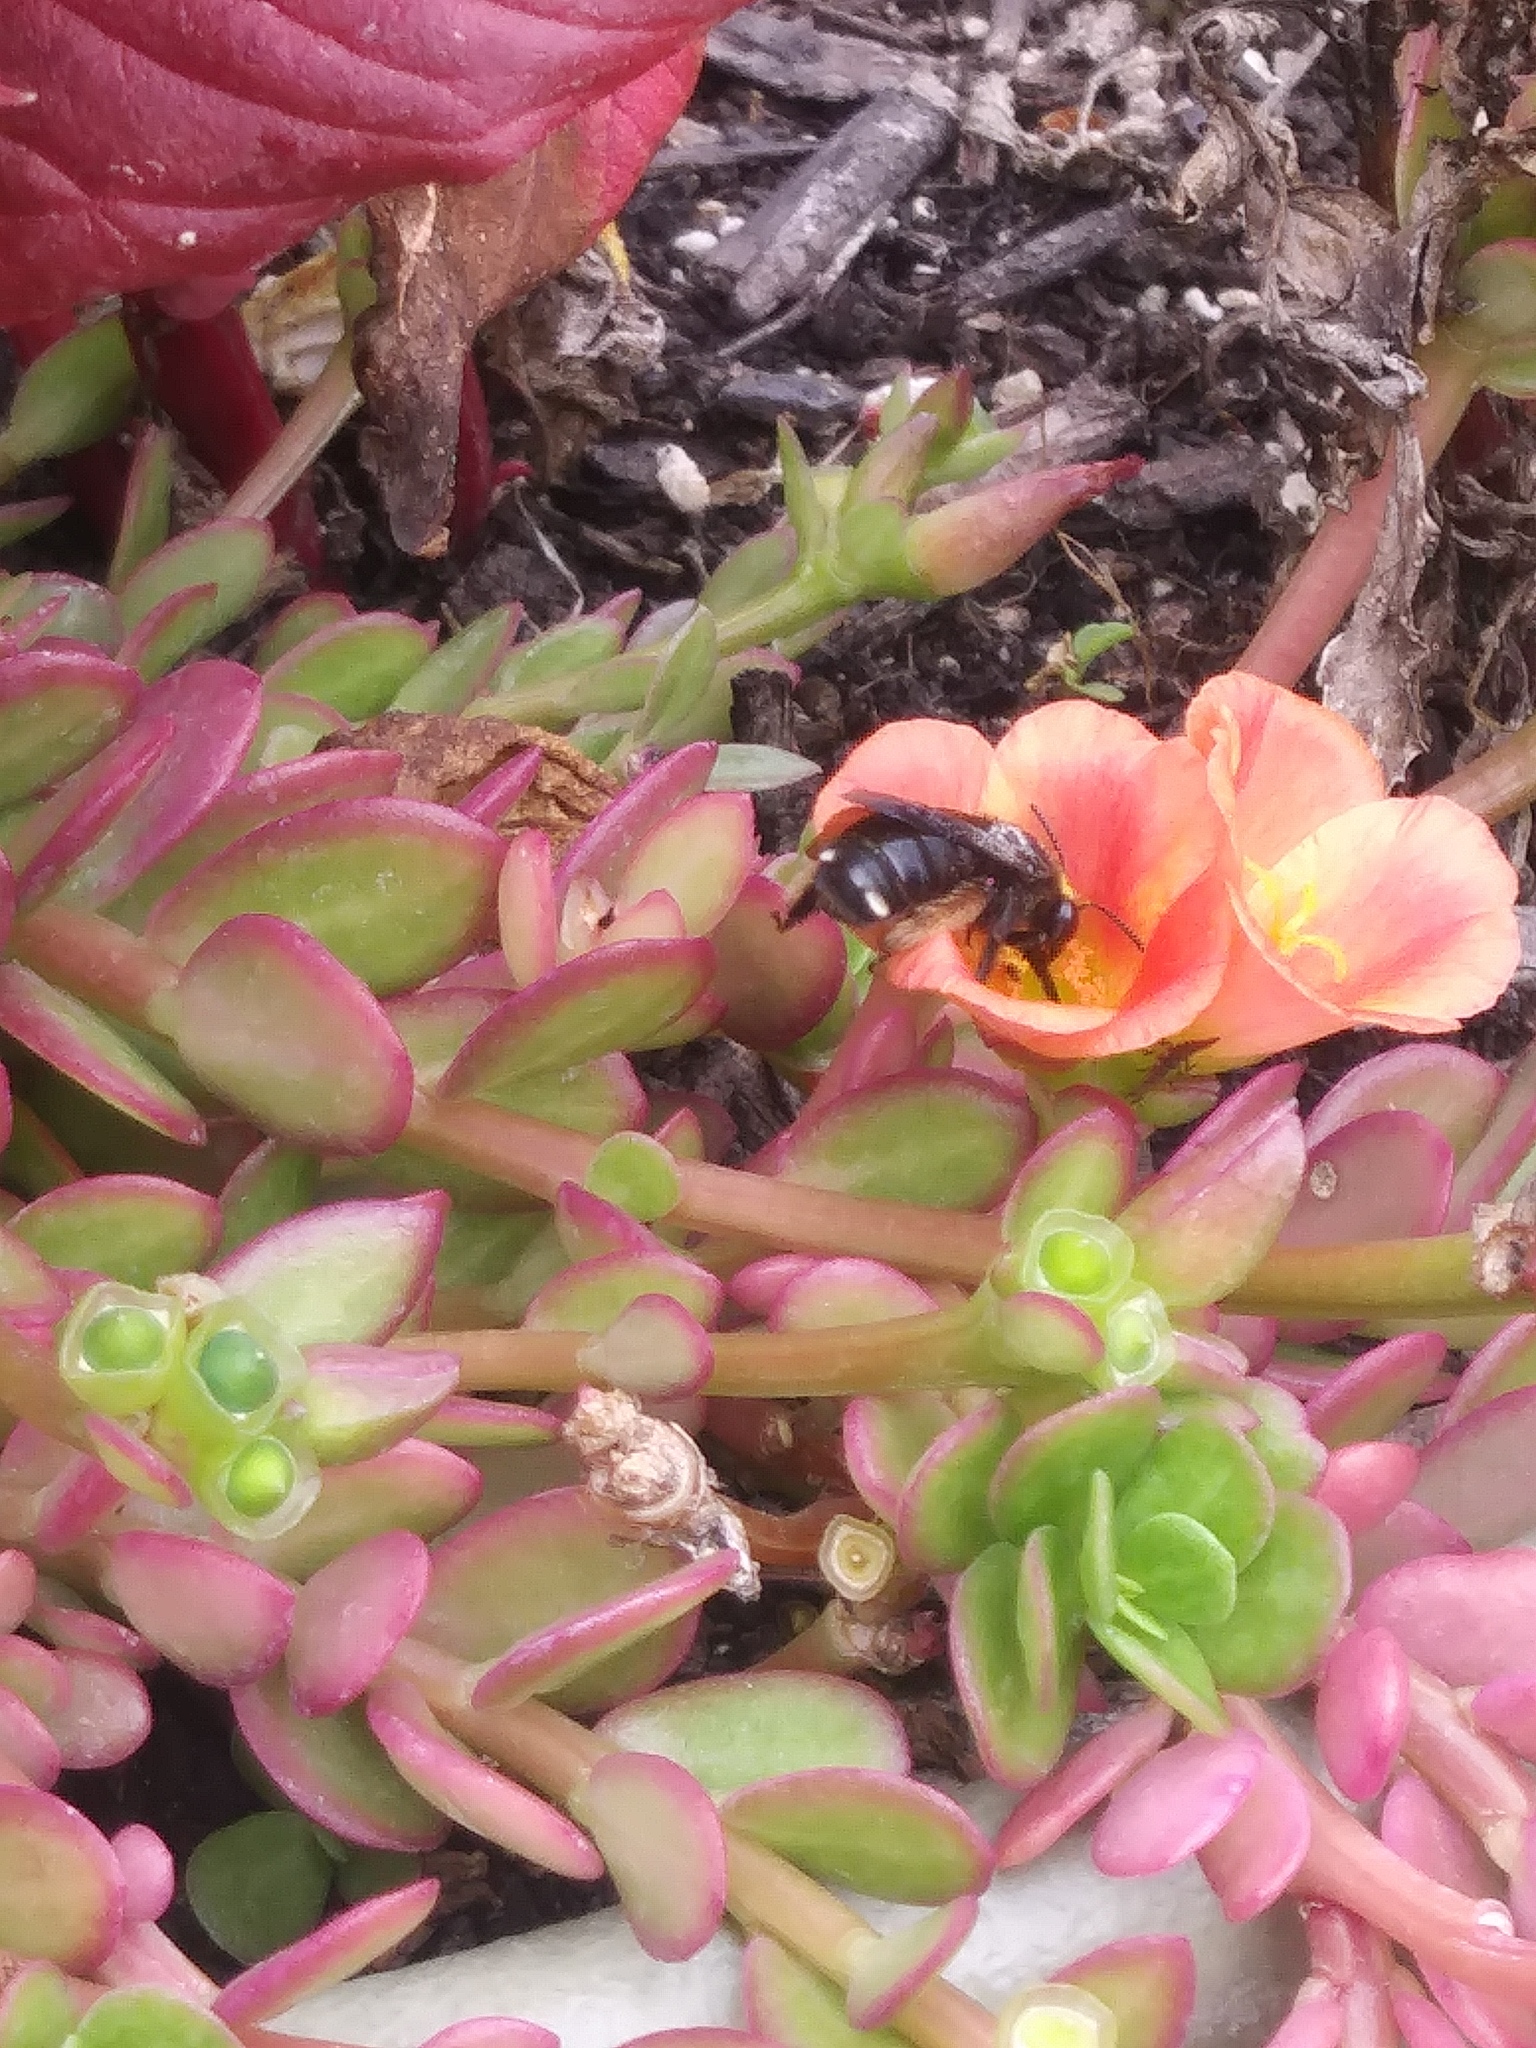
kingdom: Animalia
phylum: Arthropoda
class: Insecta
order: Hymenoptera
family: Apidae
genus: Melissodes
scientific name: Melissodes bimaculatus
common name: Two-spotted long-horned bee
